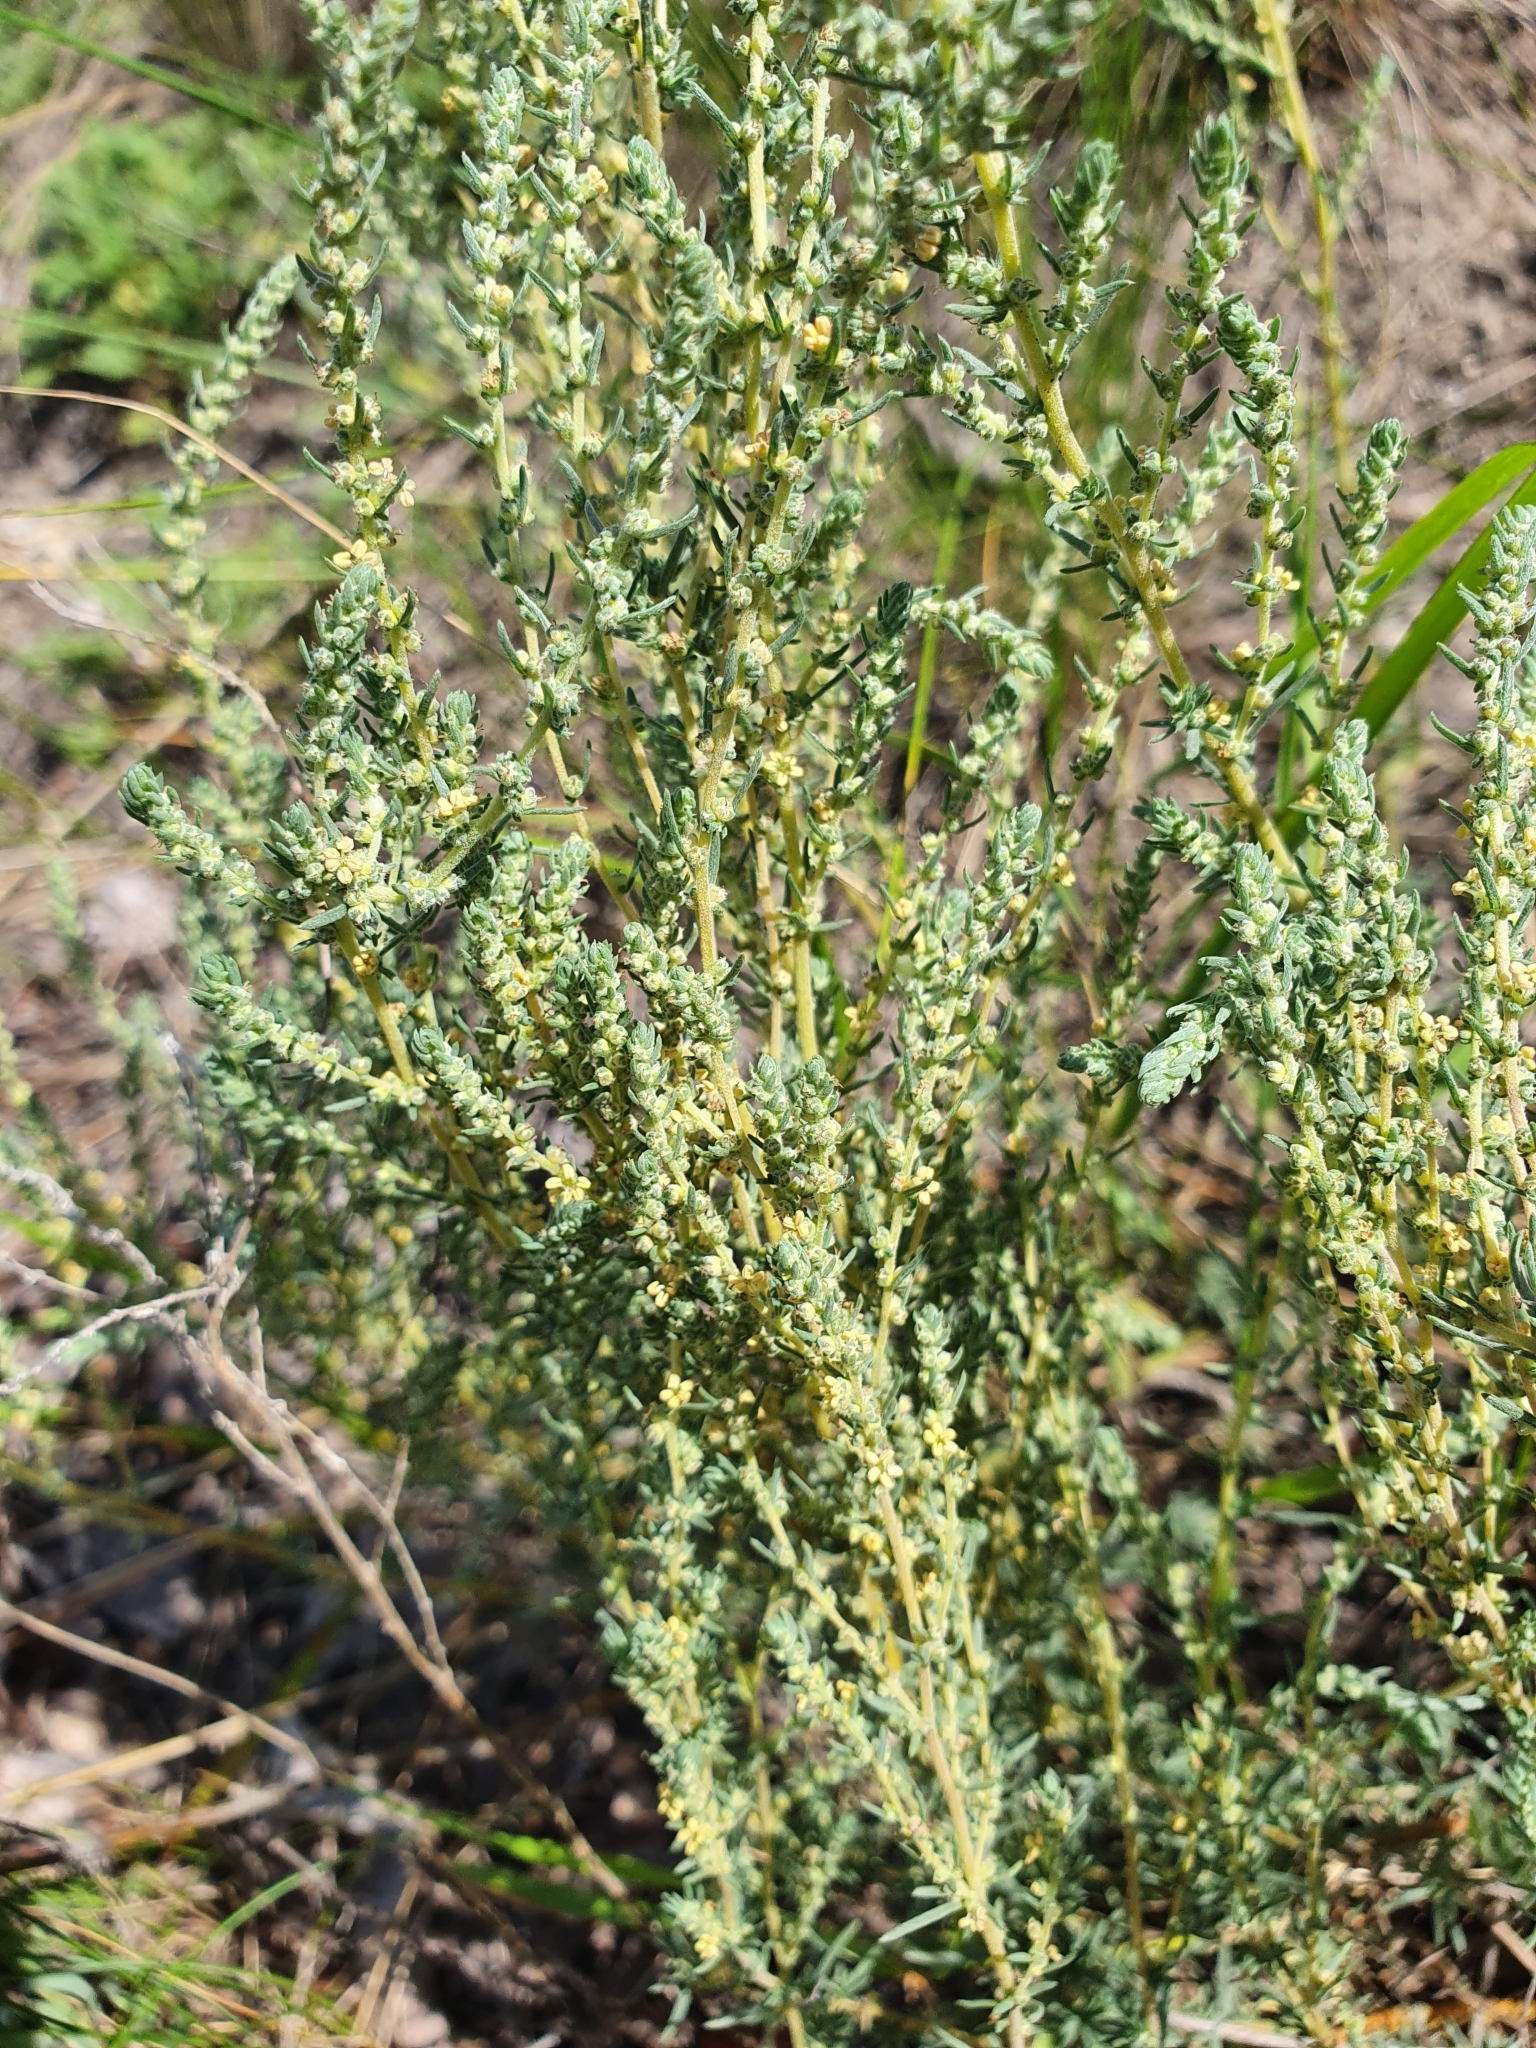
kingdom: Plantae
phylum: Tracheophyta
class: Magnoliopsida
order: Caryophyllales
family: Amaranthaceae
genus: Bassia
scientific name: Bassia prostrata
